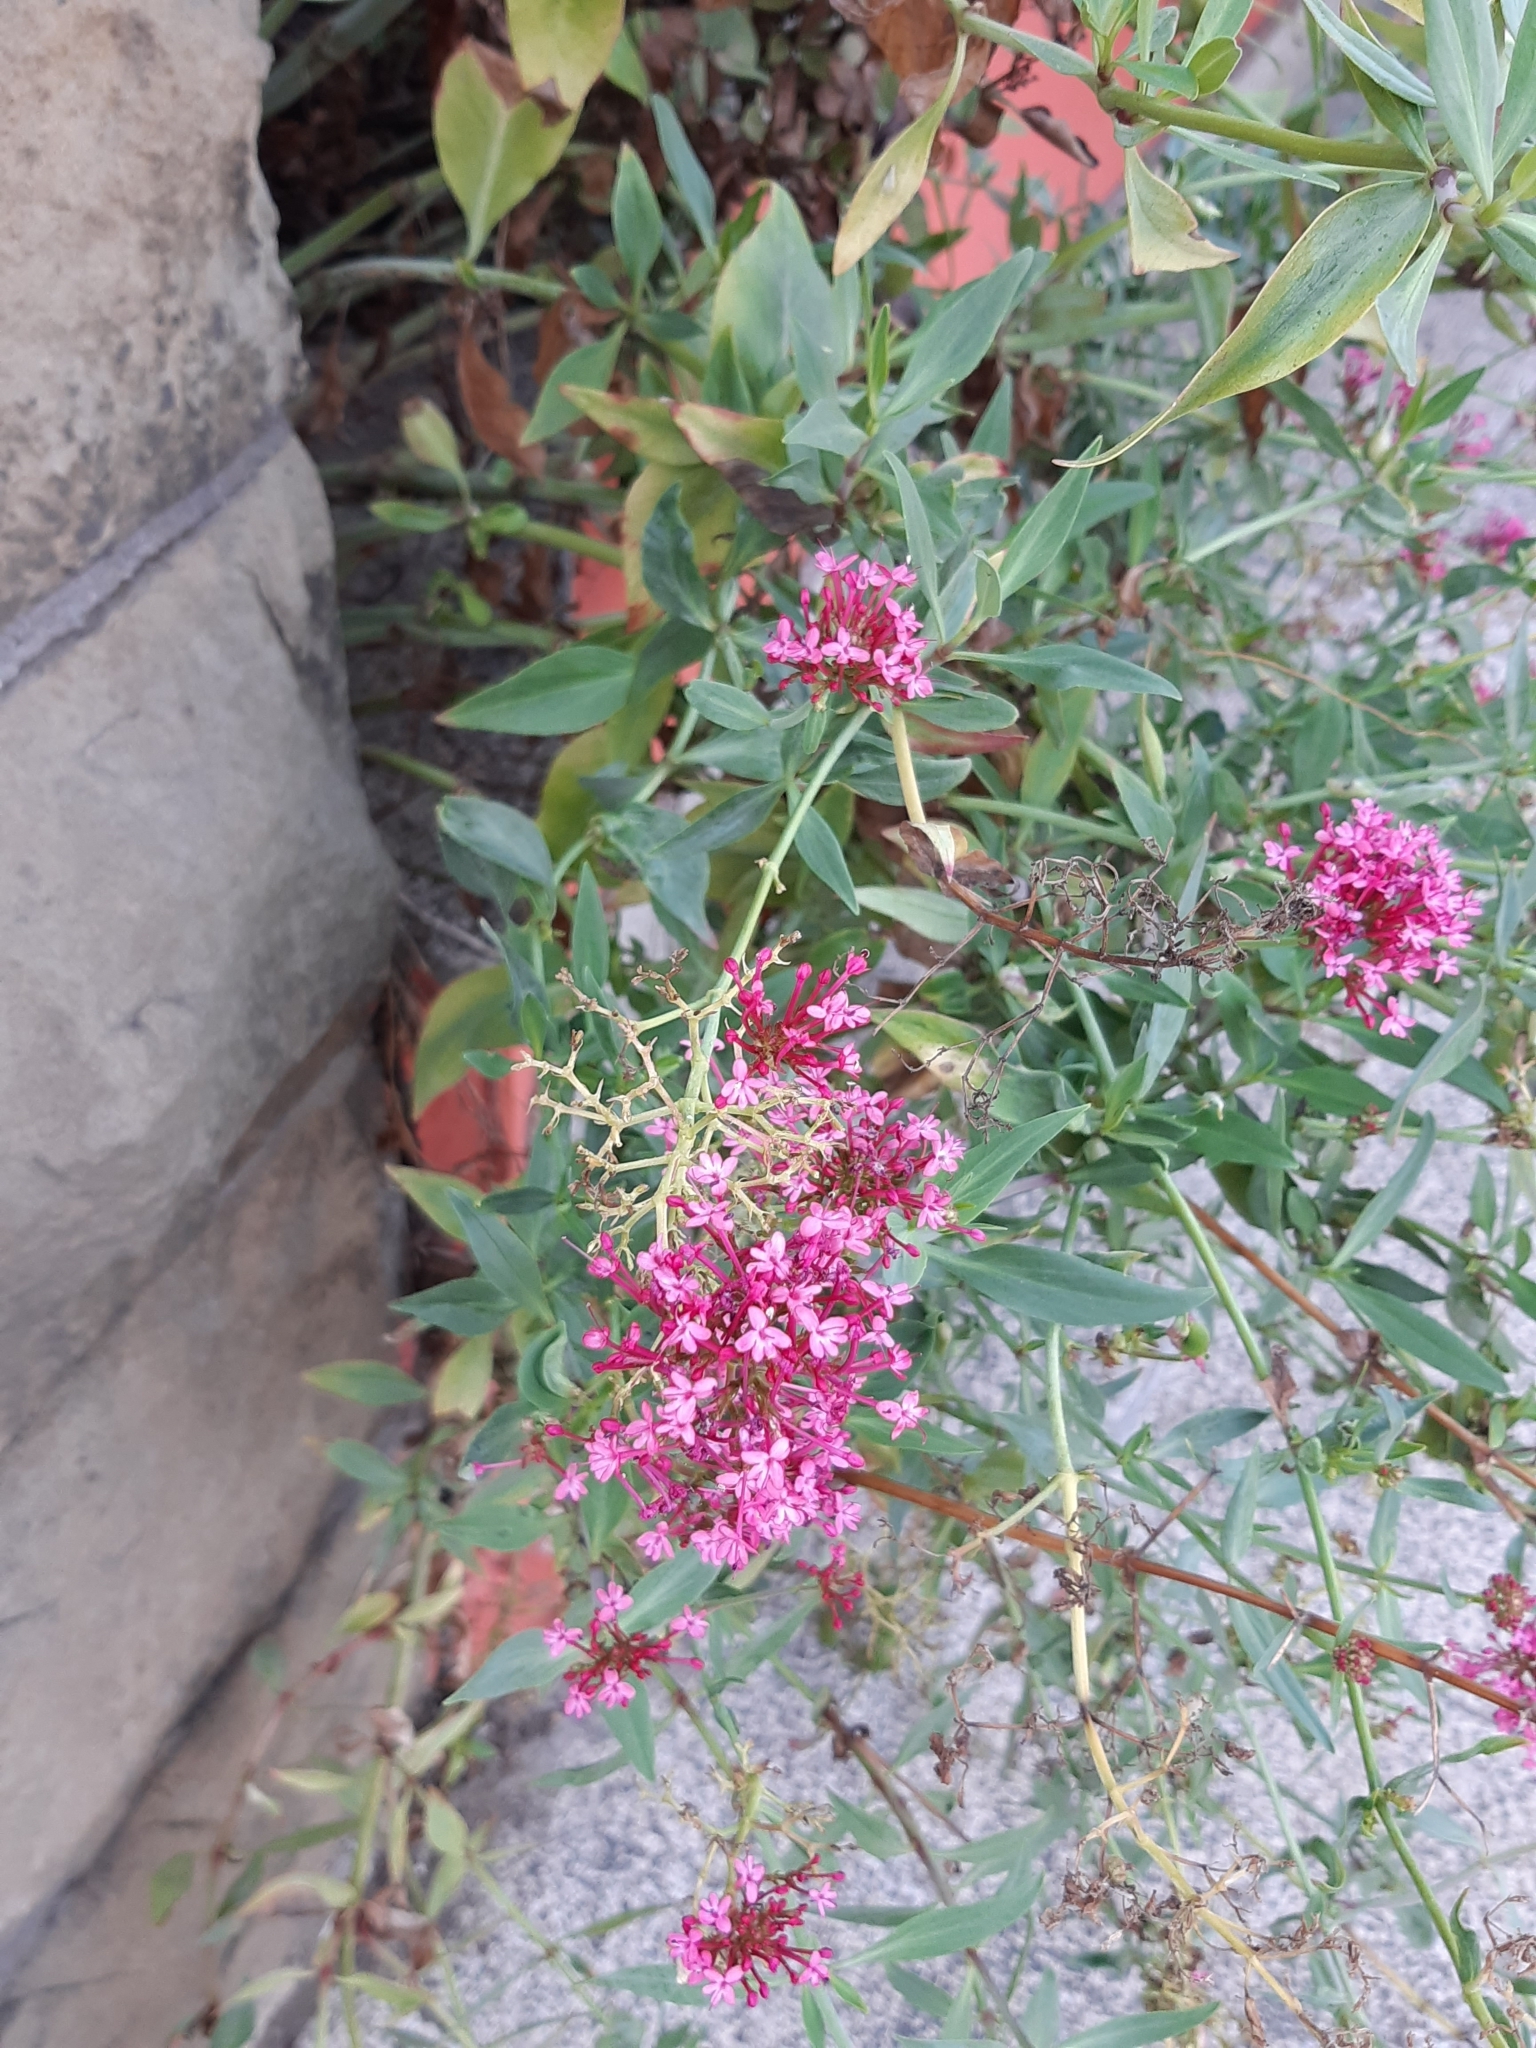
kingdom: Plantae
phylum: Tracheophyta
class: Magnoliopsida
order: Dipsacales
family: Caprifoliaceae
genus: Centranthus
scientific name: Centranthus ruber
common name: Red valerian
